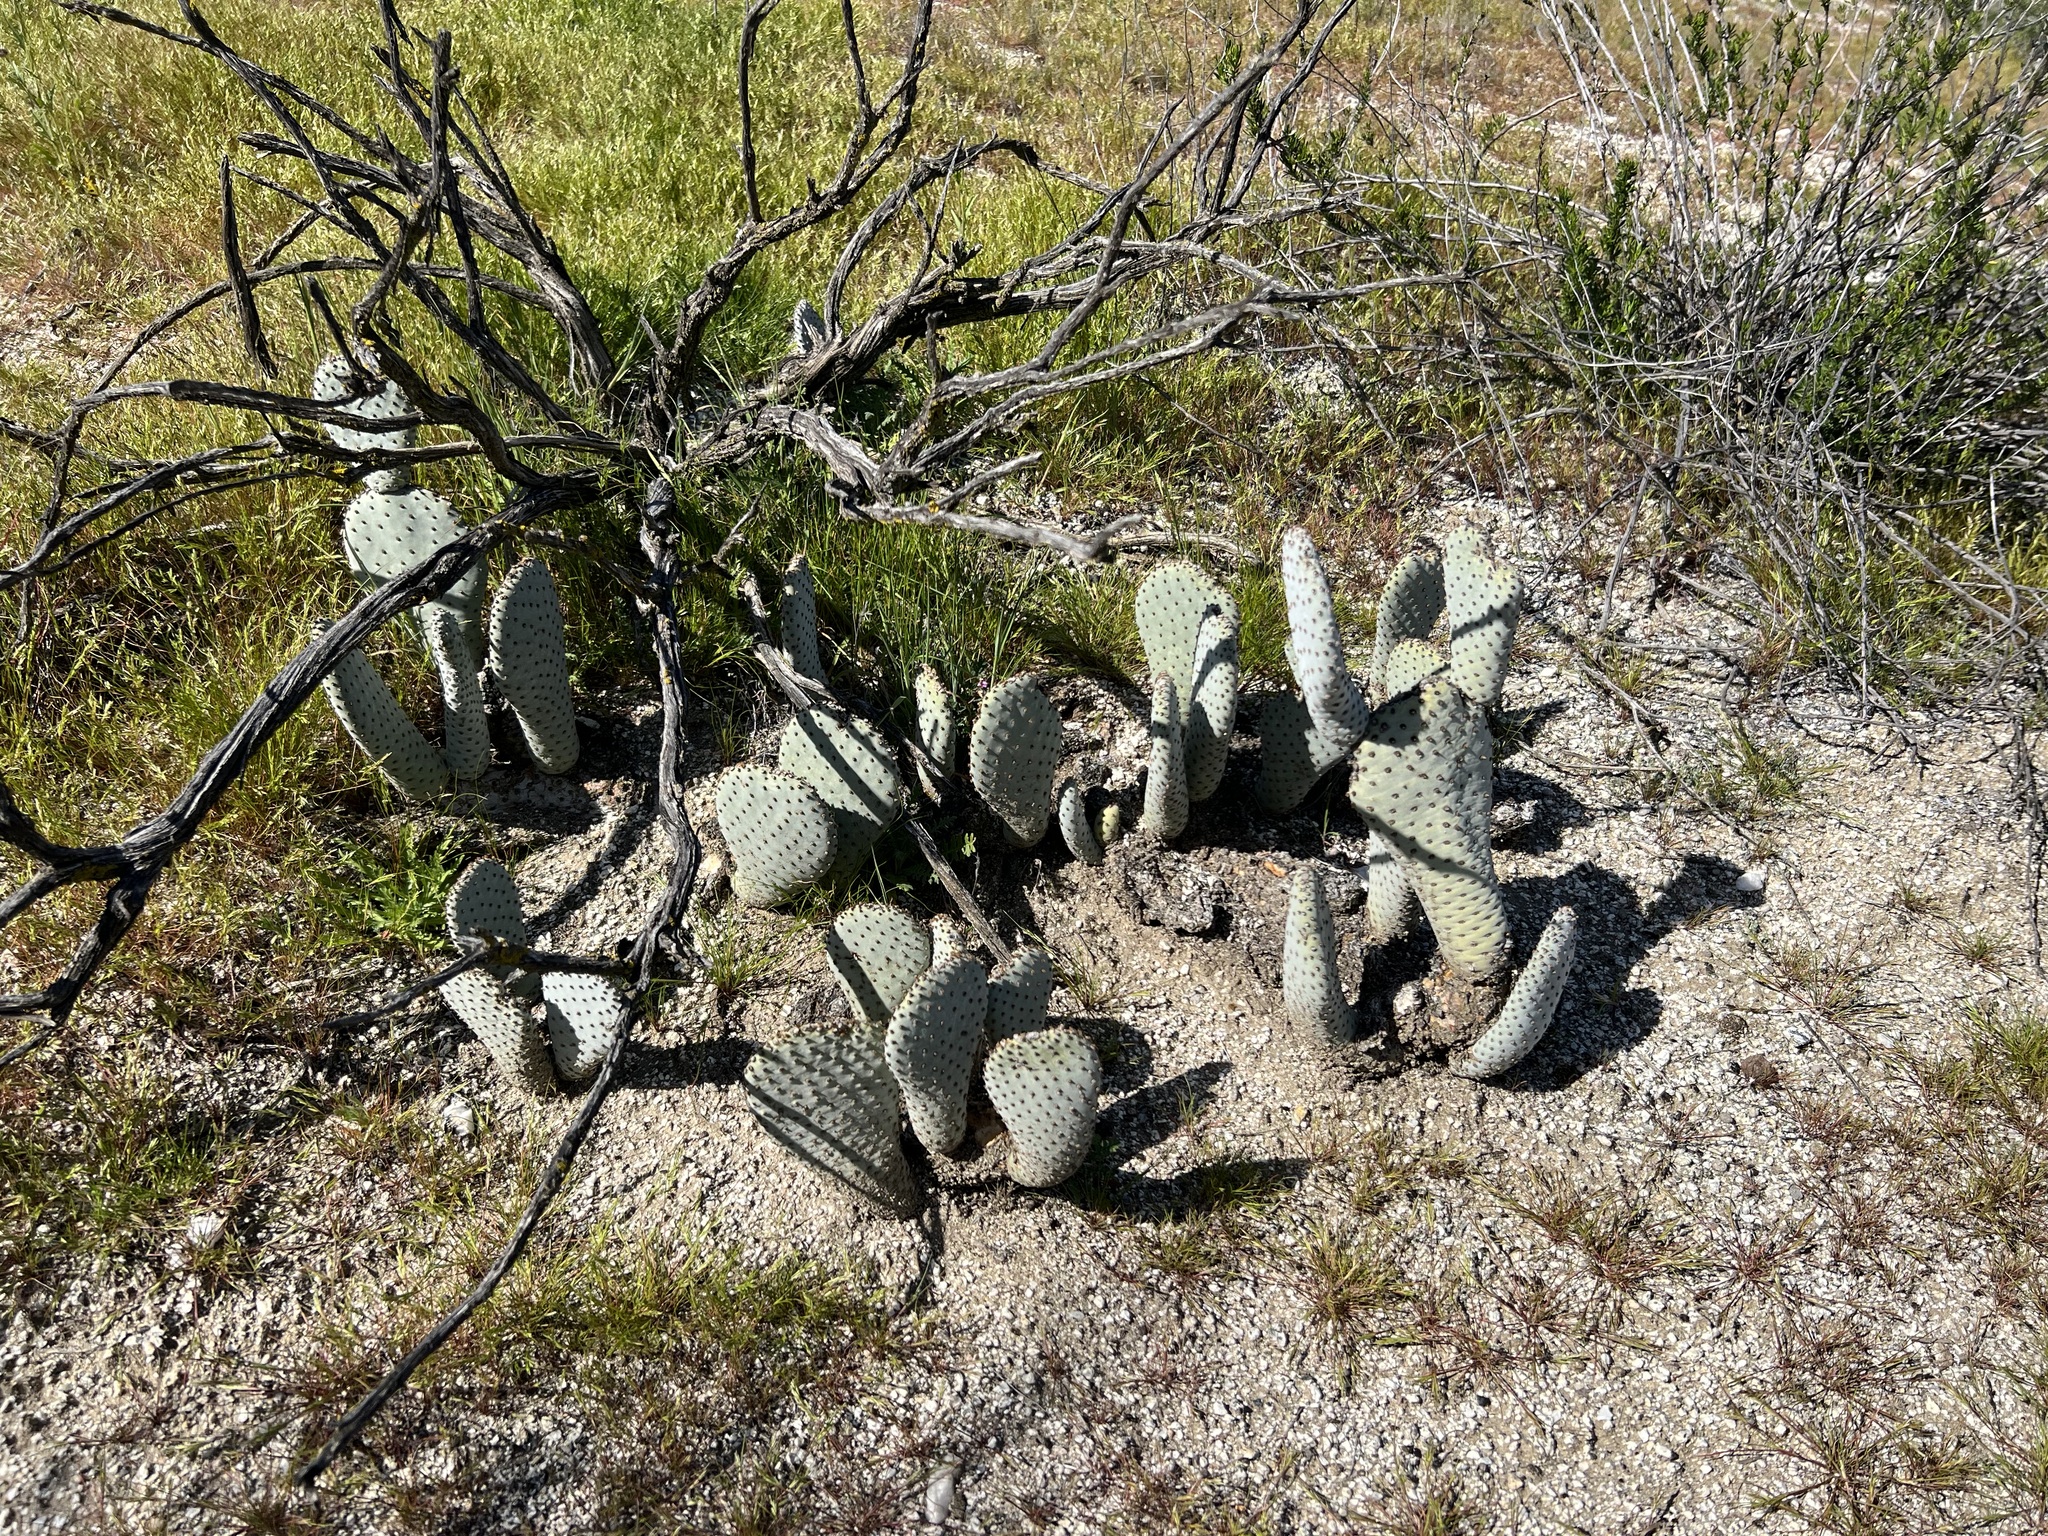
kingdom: Plantae
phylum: Tracheophyta
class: Magnoliopsida
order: Caryophyllales
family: Cactaceae
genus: Opuntia
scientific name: Opuntia basilaris
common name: Beavertail prickly-pear
